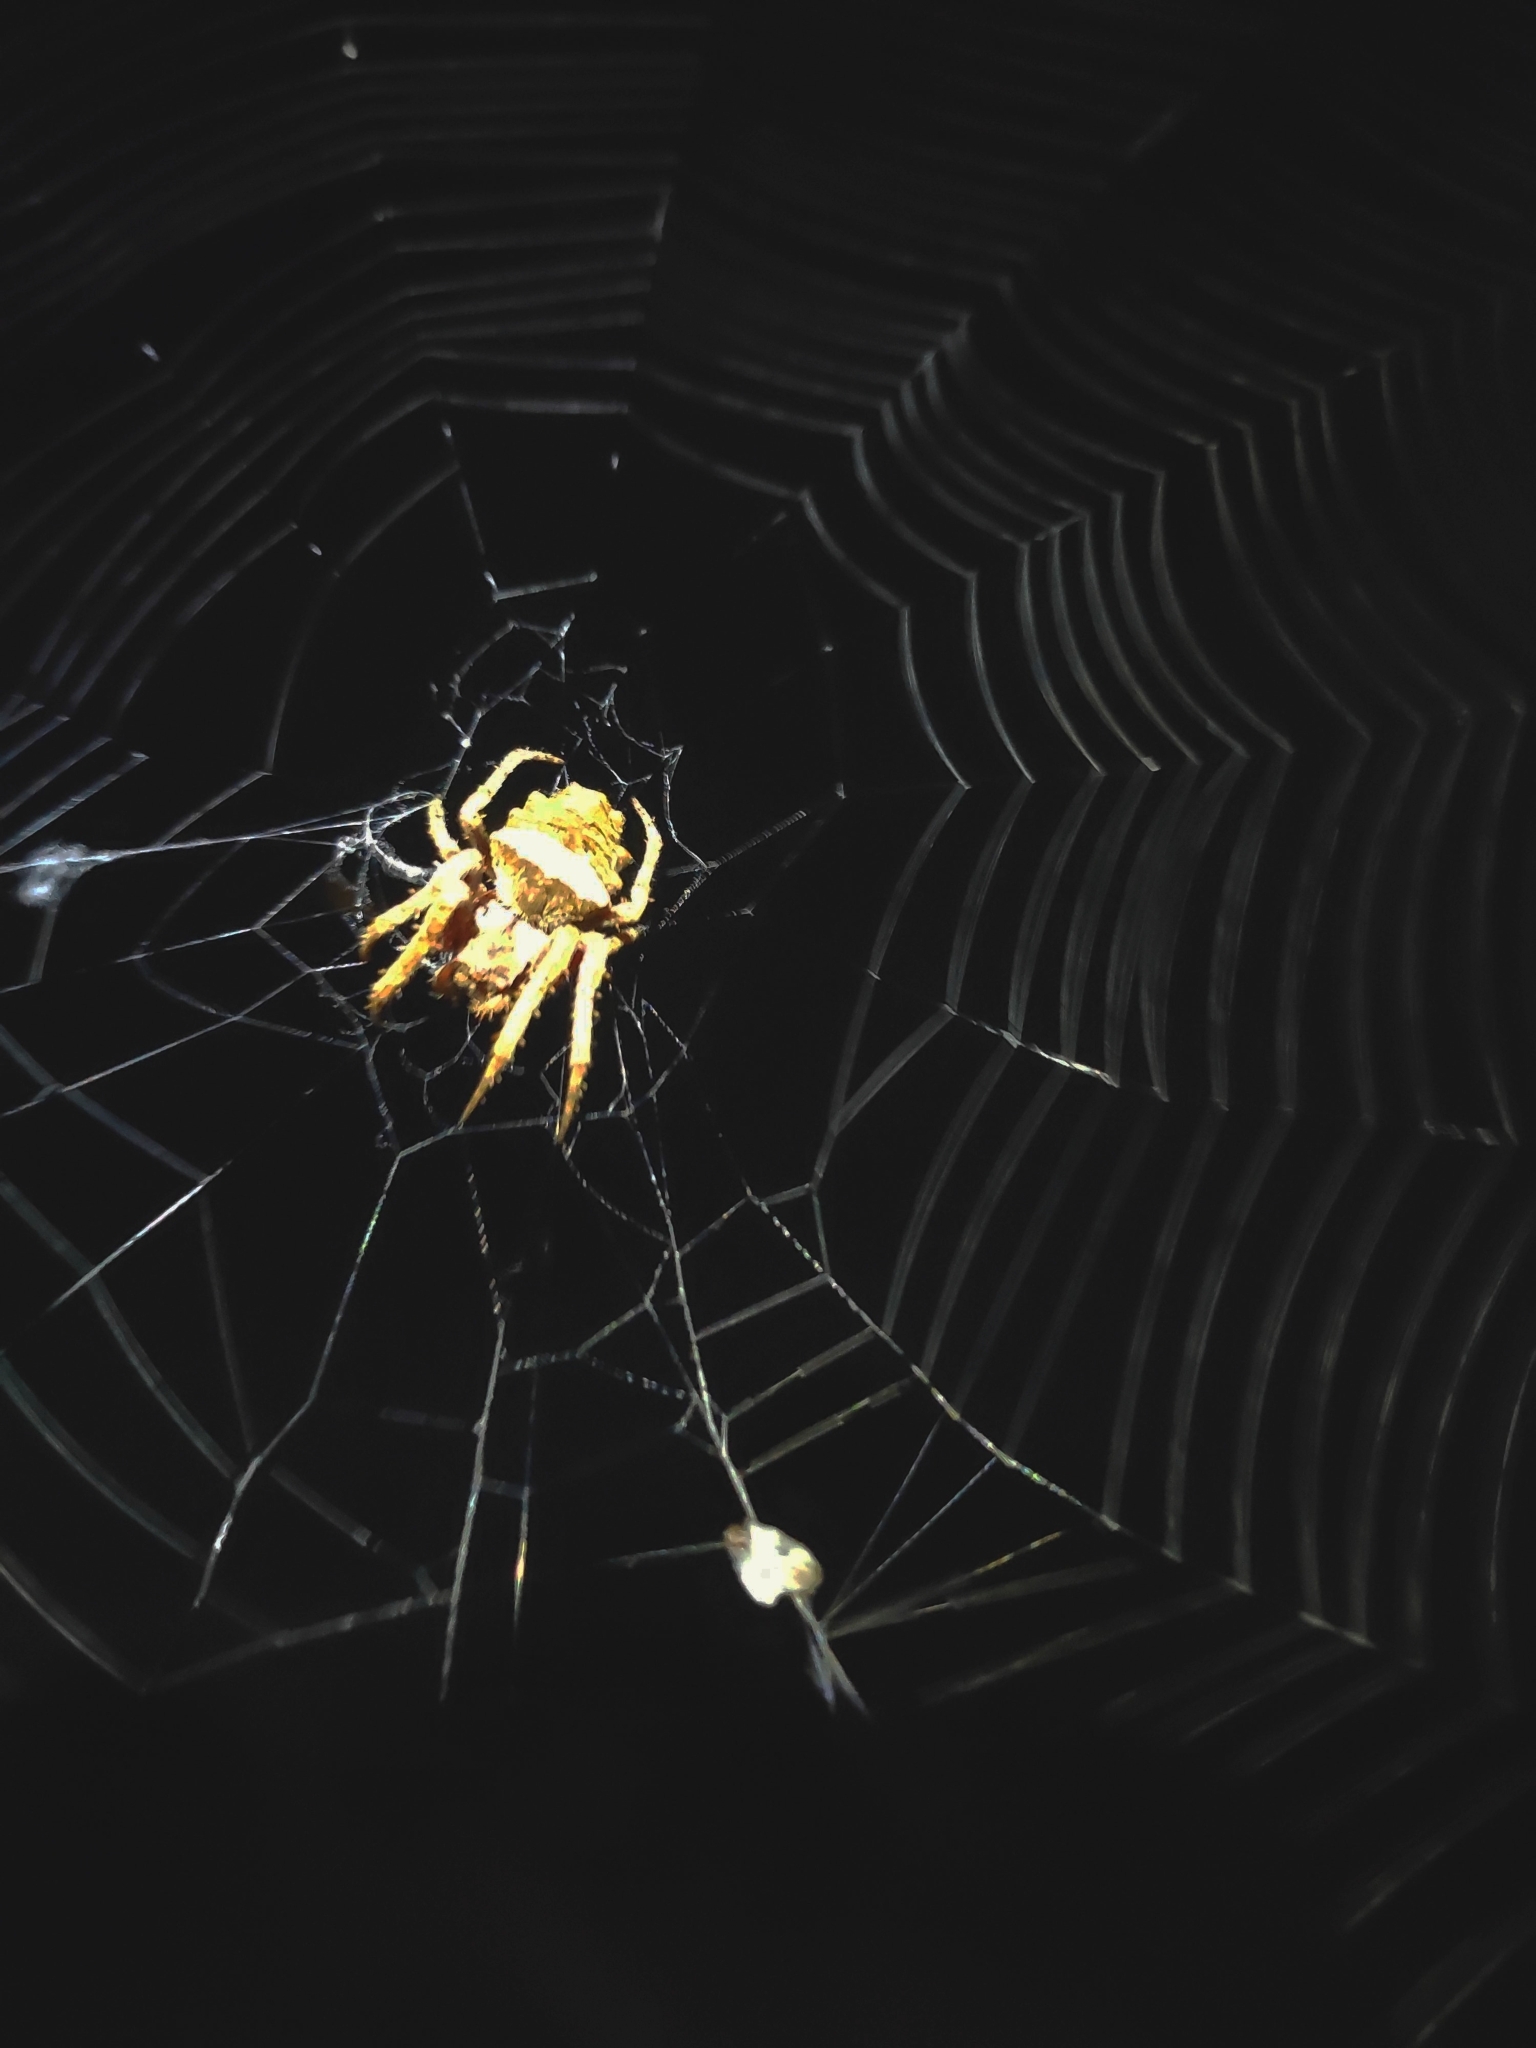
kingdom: Animalia
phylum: Arthropoda
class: Arachnida
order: Araneae
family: Araneidae
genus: Parawixia
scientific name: Parawixia audax
